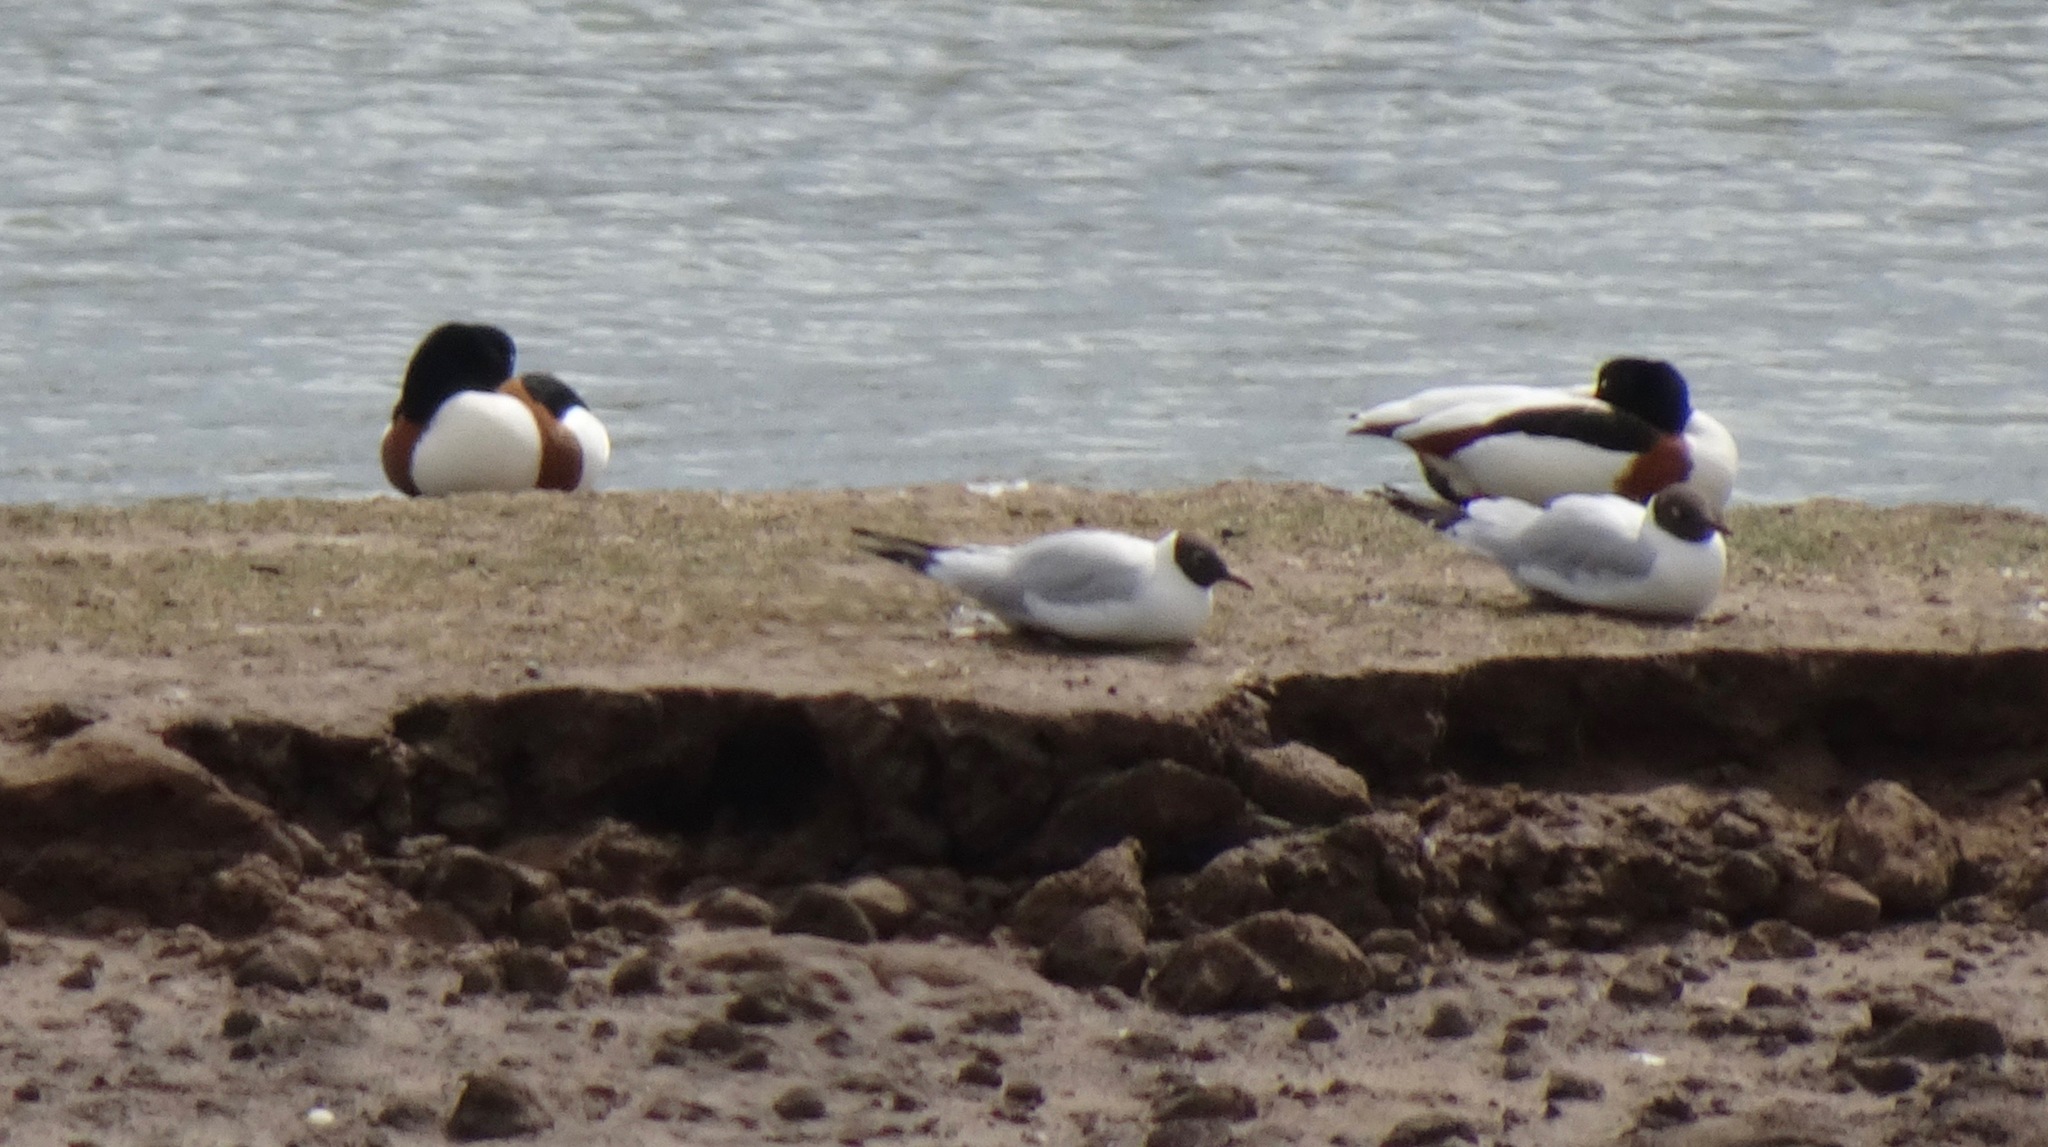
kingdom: Animalia
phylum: Chordata
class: Aves
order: Anseriformes
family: Anatidae
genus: Tadorna
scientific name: Tadorna tadorna
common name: Common shelduck
